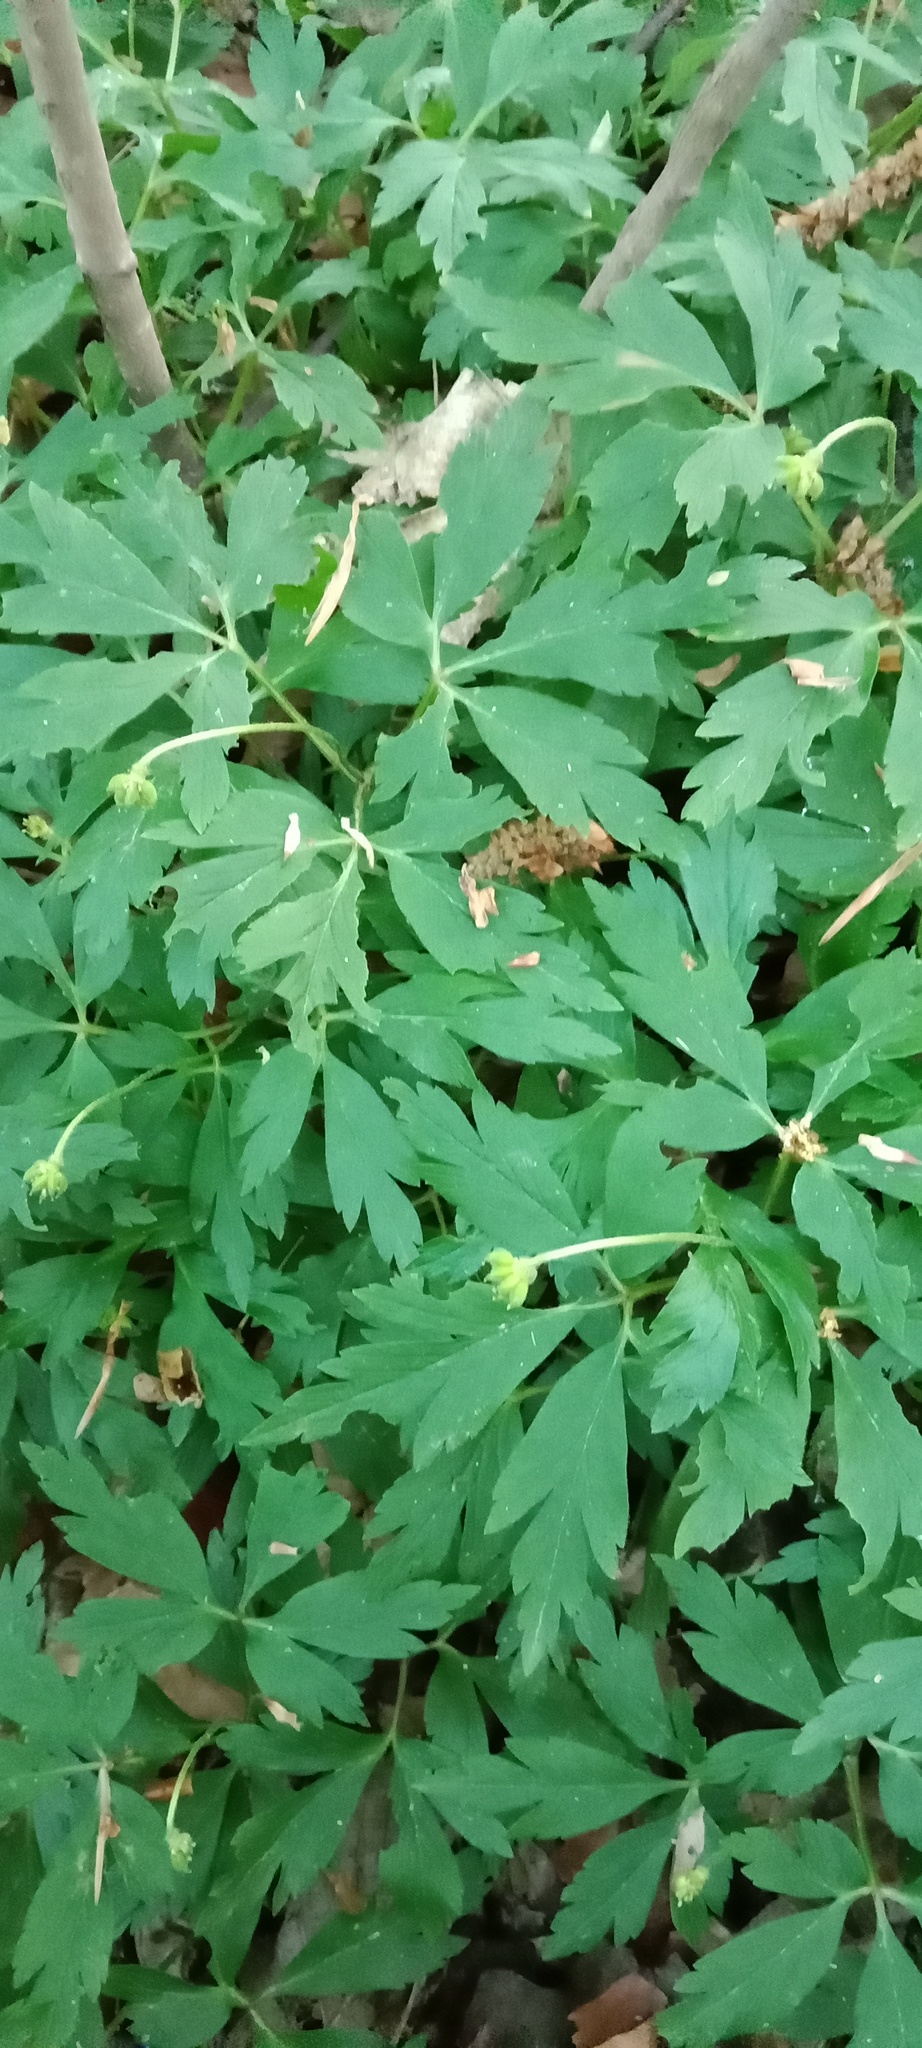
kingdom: Plantae
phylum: Tracheophyta
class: Magnoliopsida
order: Ranunculales
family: Ranunculaceae
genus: Anemone
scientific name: Anemone nemorosa
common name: Wood anemone
